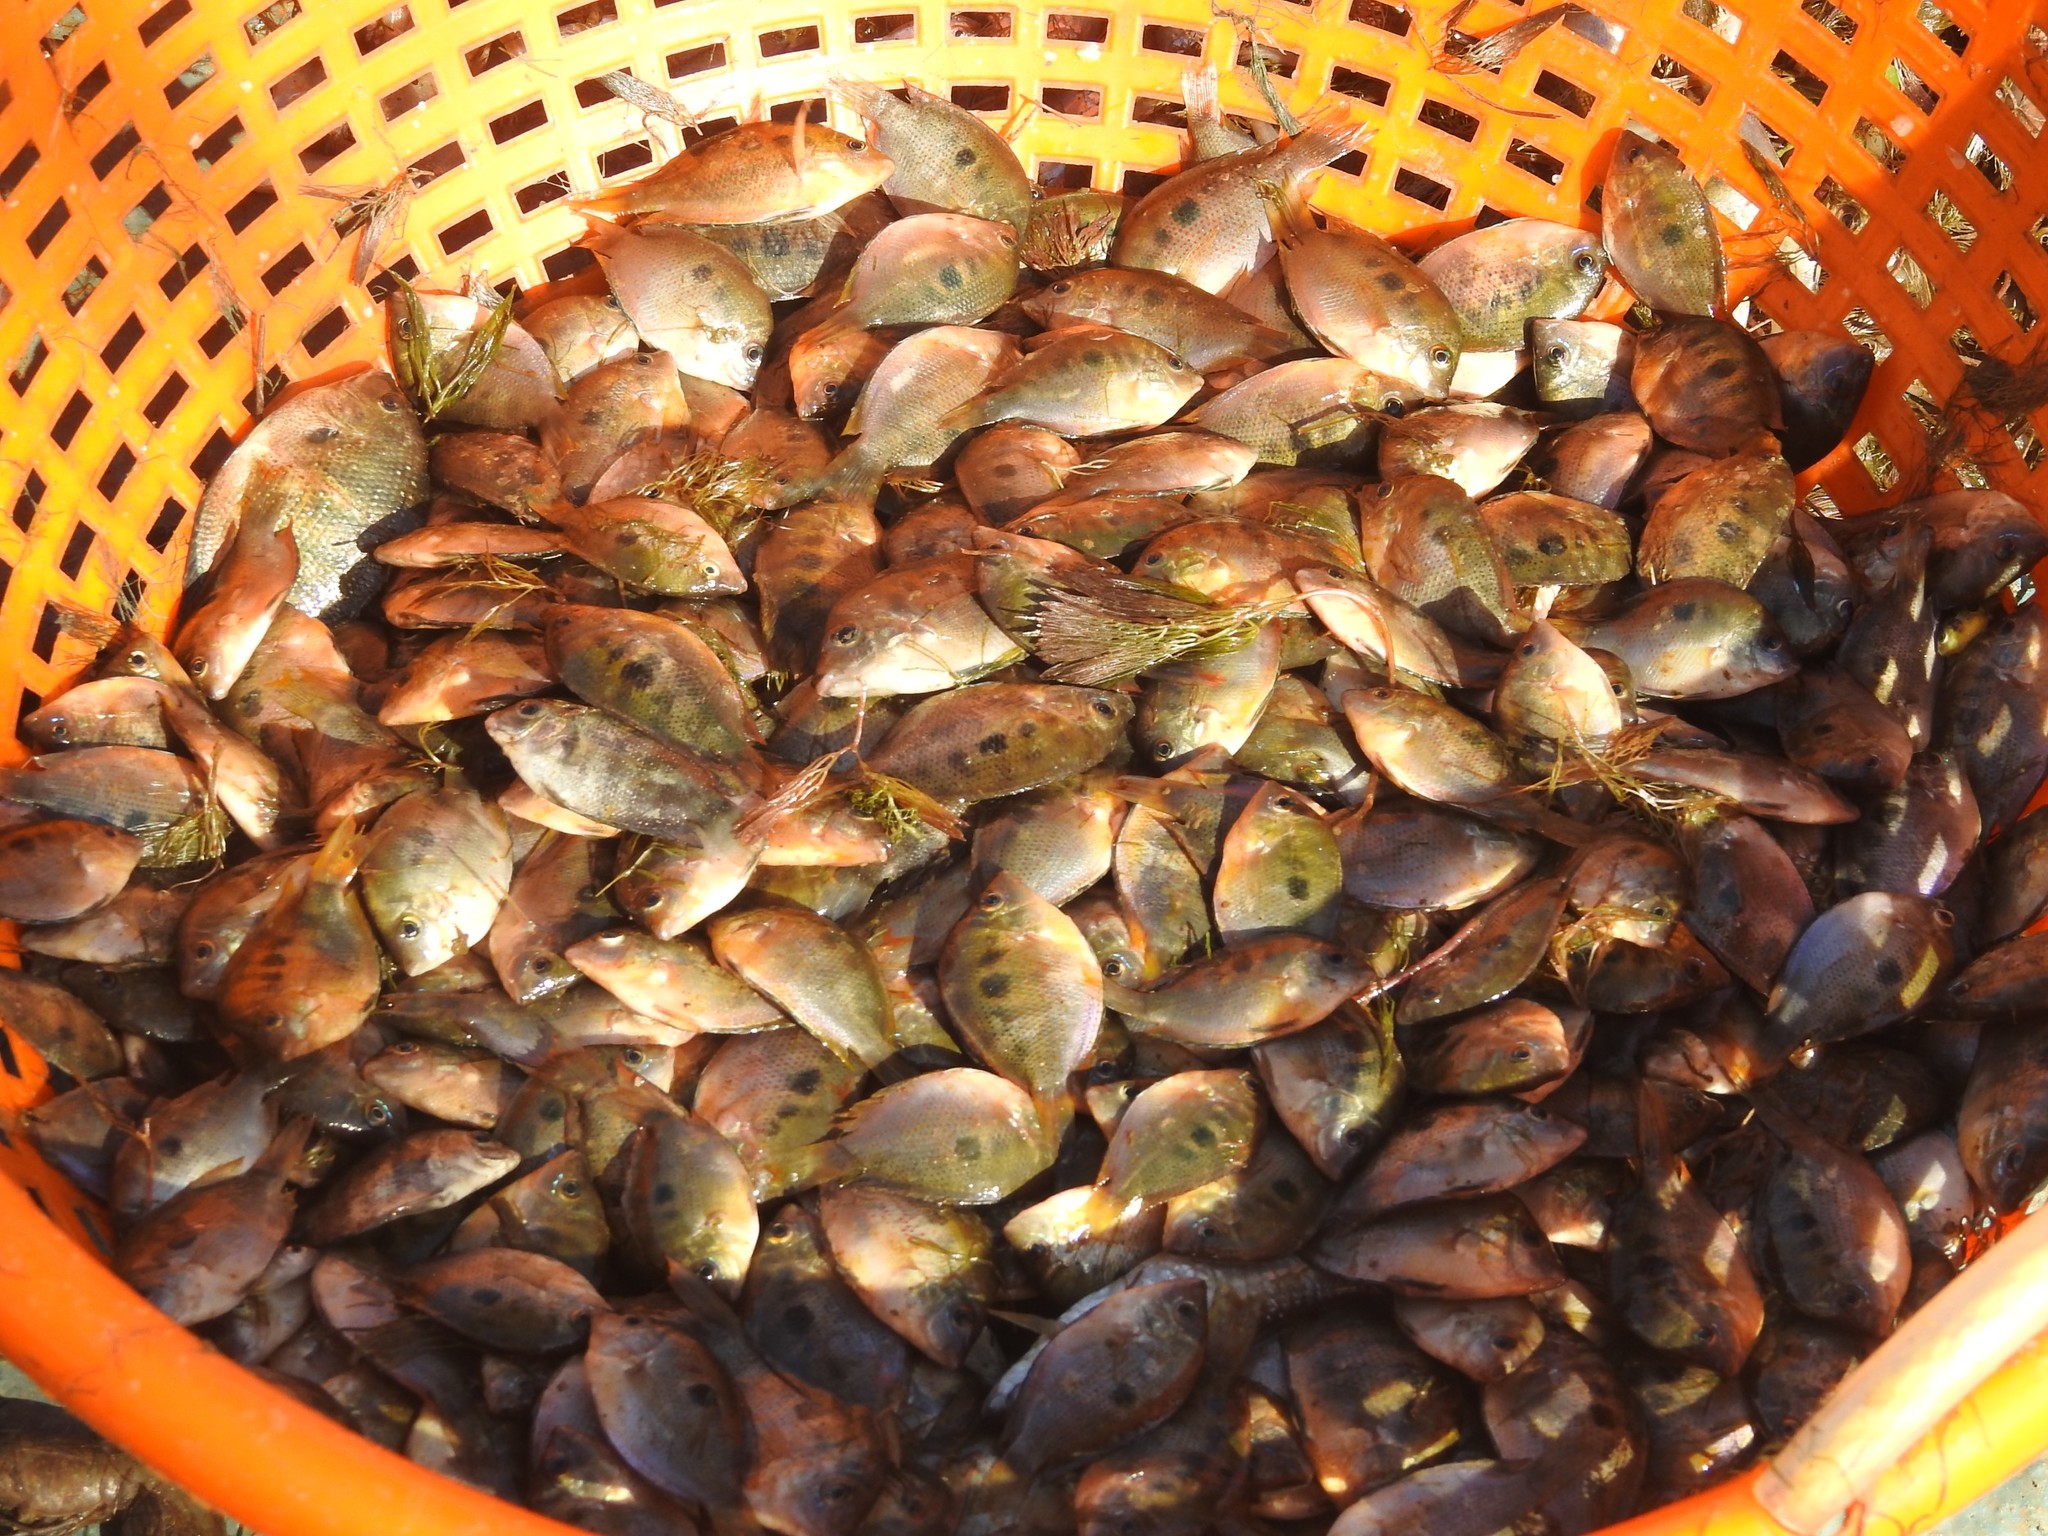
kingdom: Animalia
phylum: Chordata
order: Perciformes
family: Cichlidae
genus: Etroplus
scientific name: Etroplus maculatus
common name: Orange chromide
